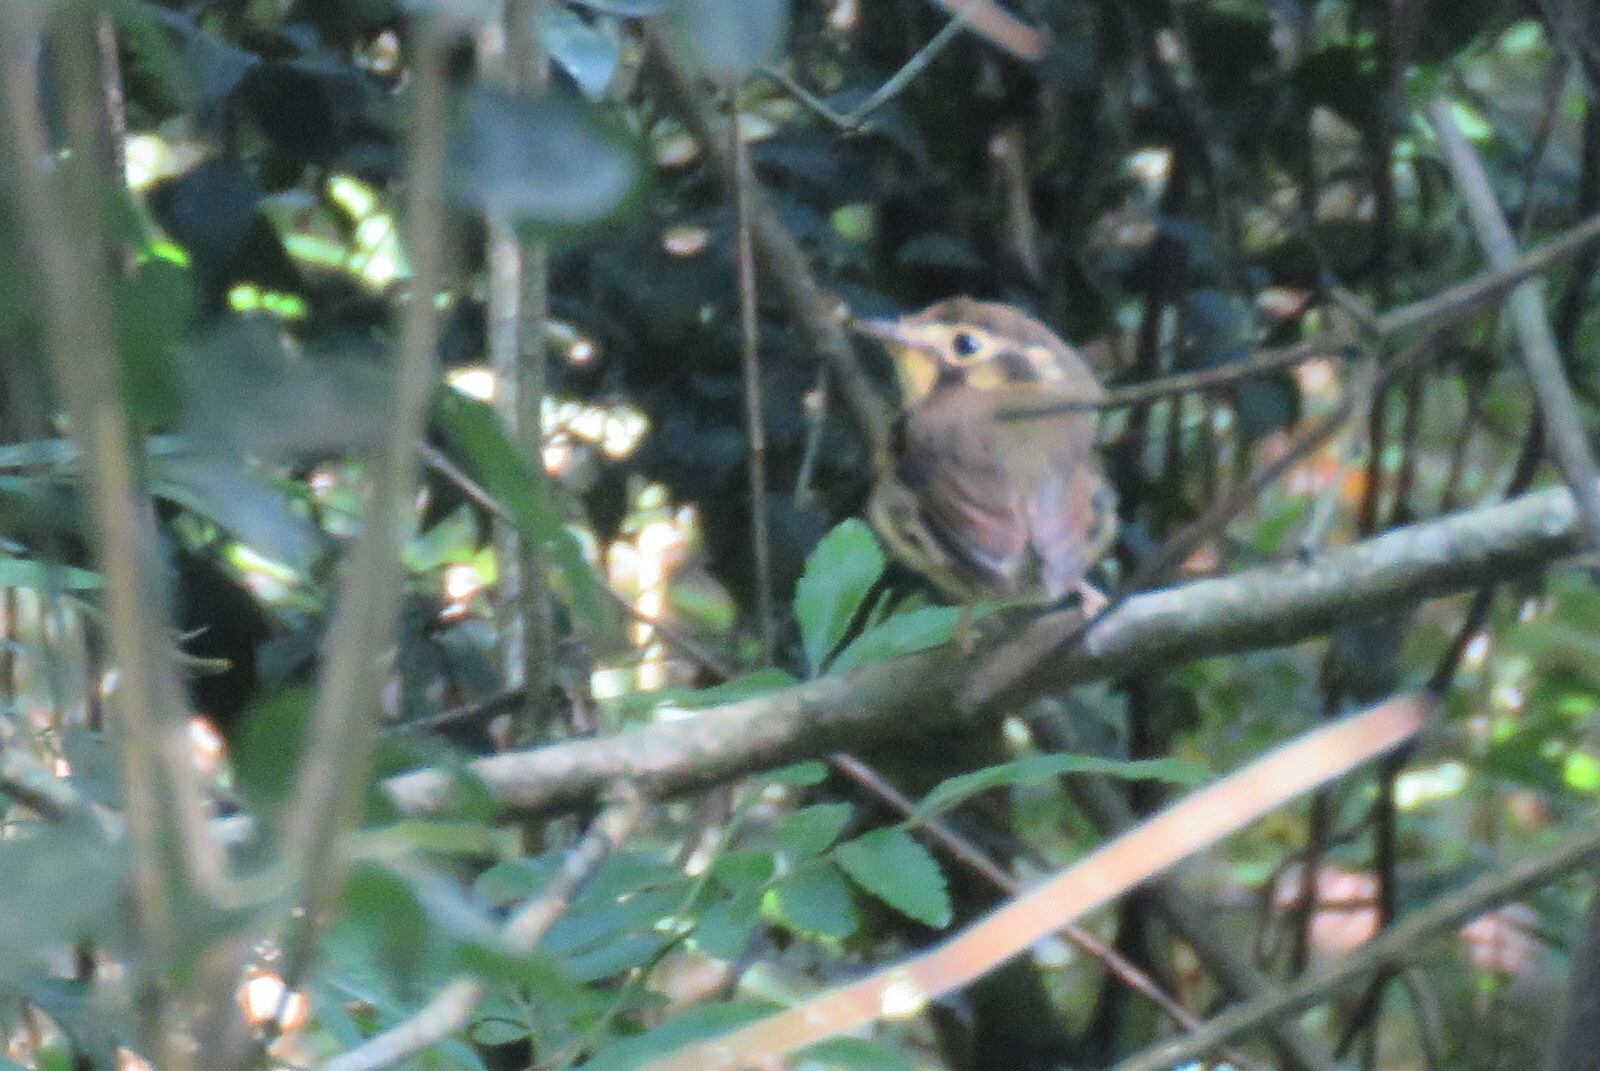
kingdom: Animalia
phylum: Chordata
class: Aves
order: Passeriformes
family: Tyrannidae
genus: Platyrinchus
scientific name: Platyrinchus mystaceus
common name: White-throated spadebill
